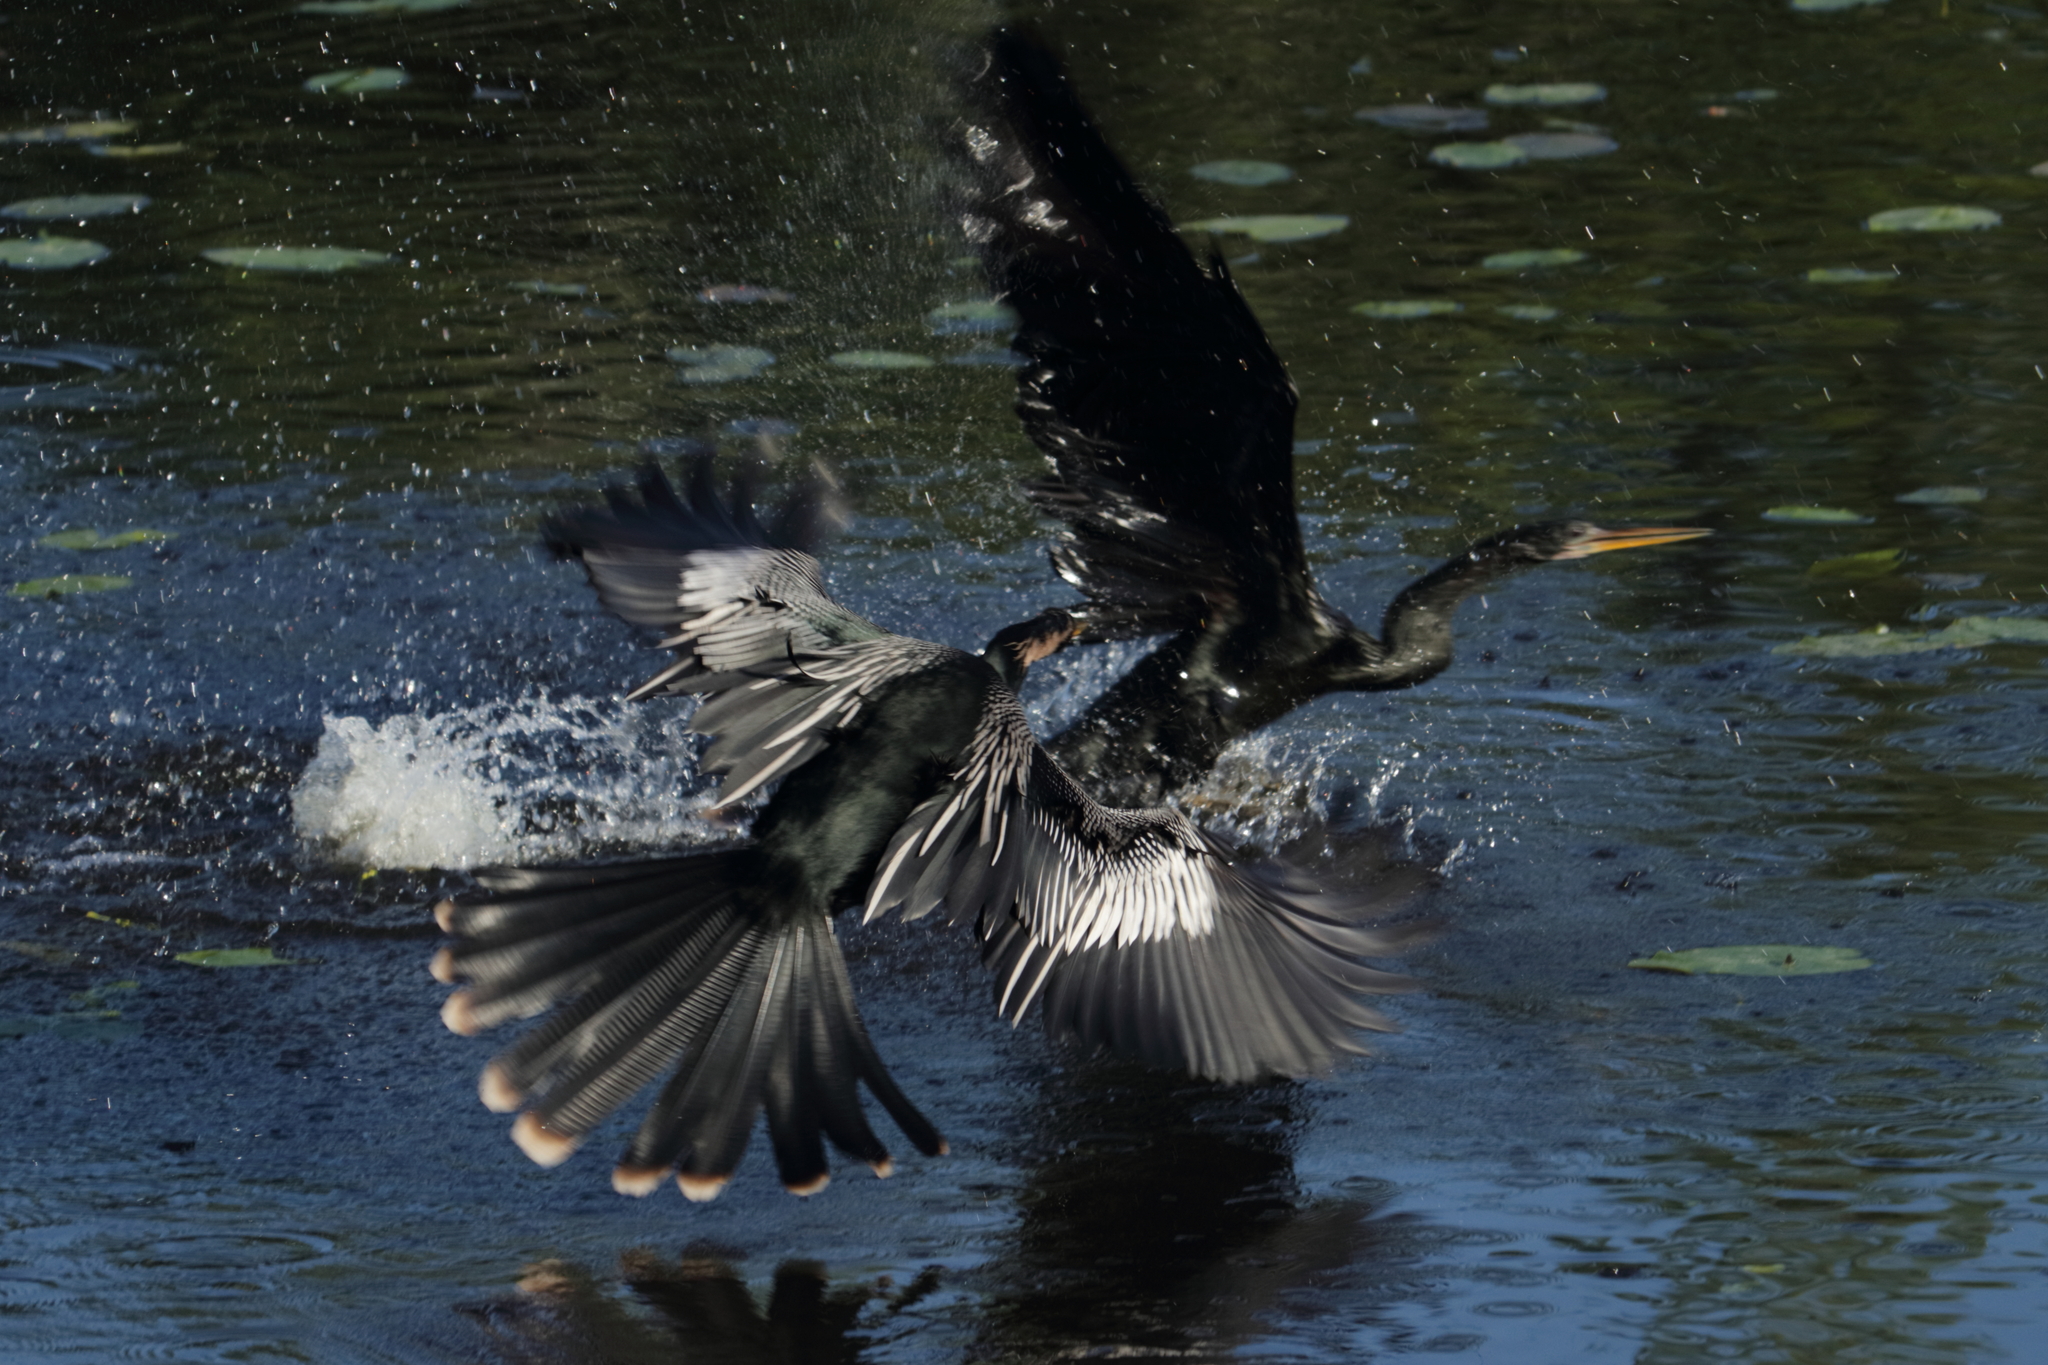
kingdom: Animalia
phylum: Chordata
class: Aves
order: Suliformes
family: Anhingidae
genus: Anhinga
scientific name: Anhinga anhinga
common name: Anhinga
